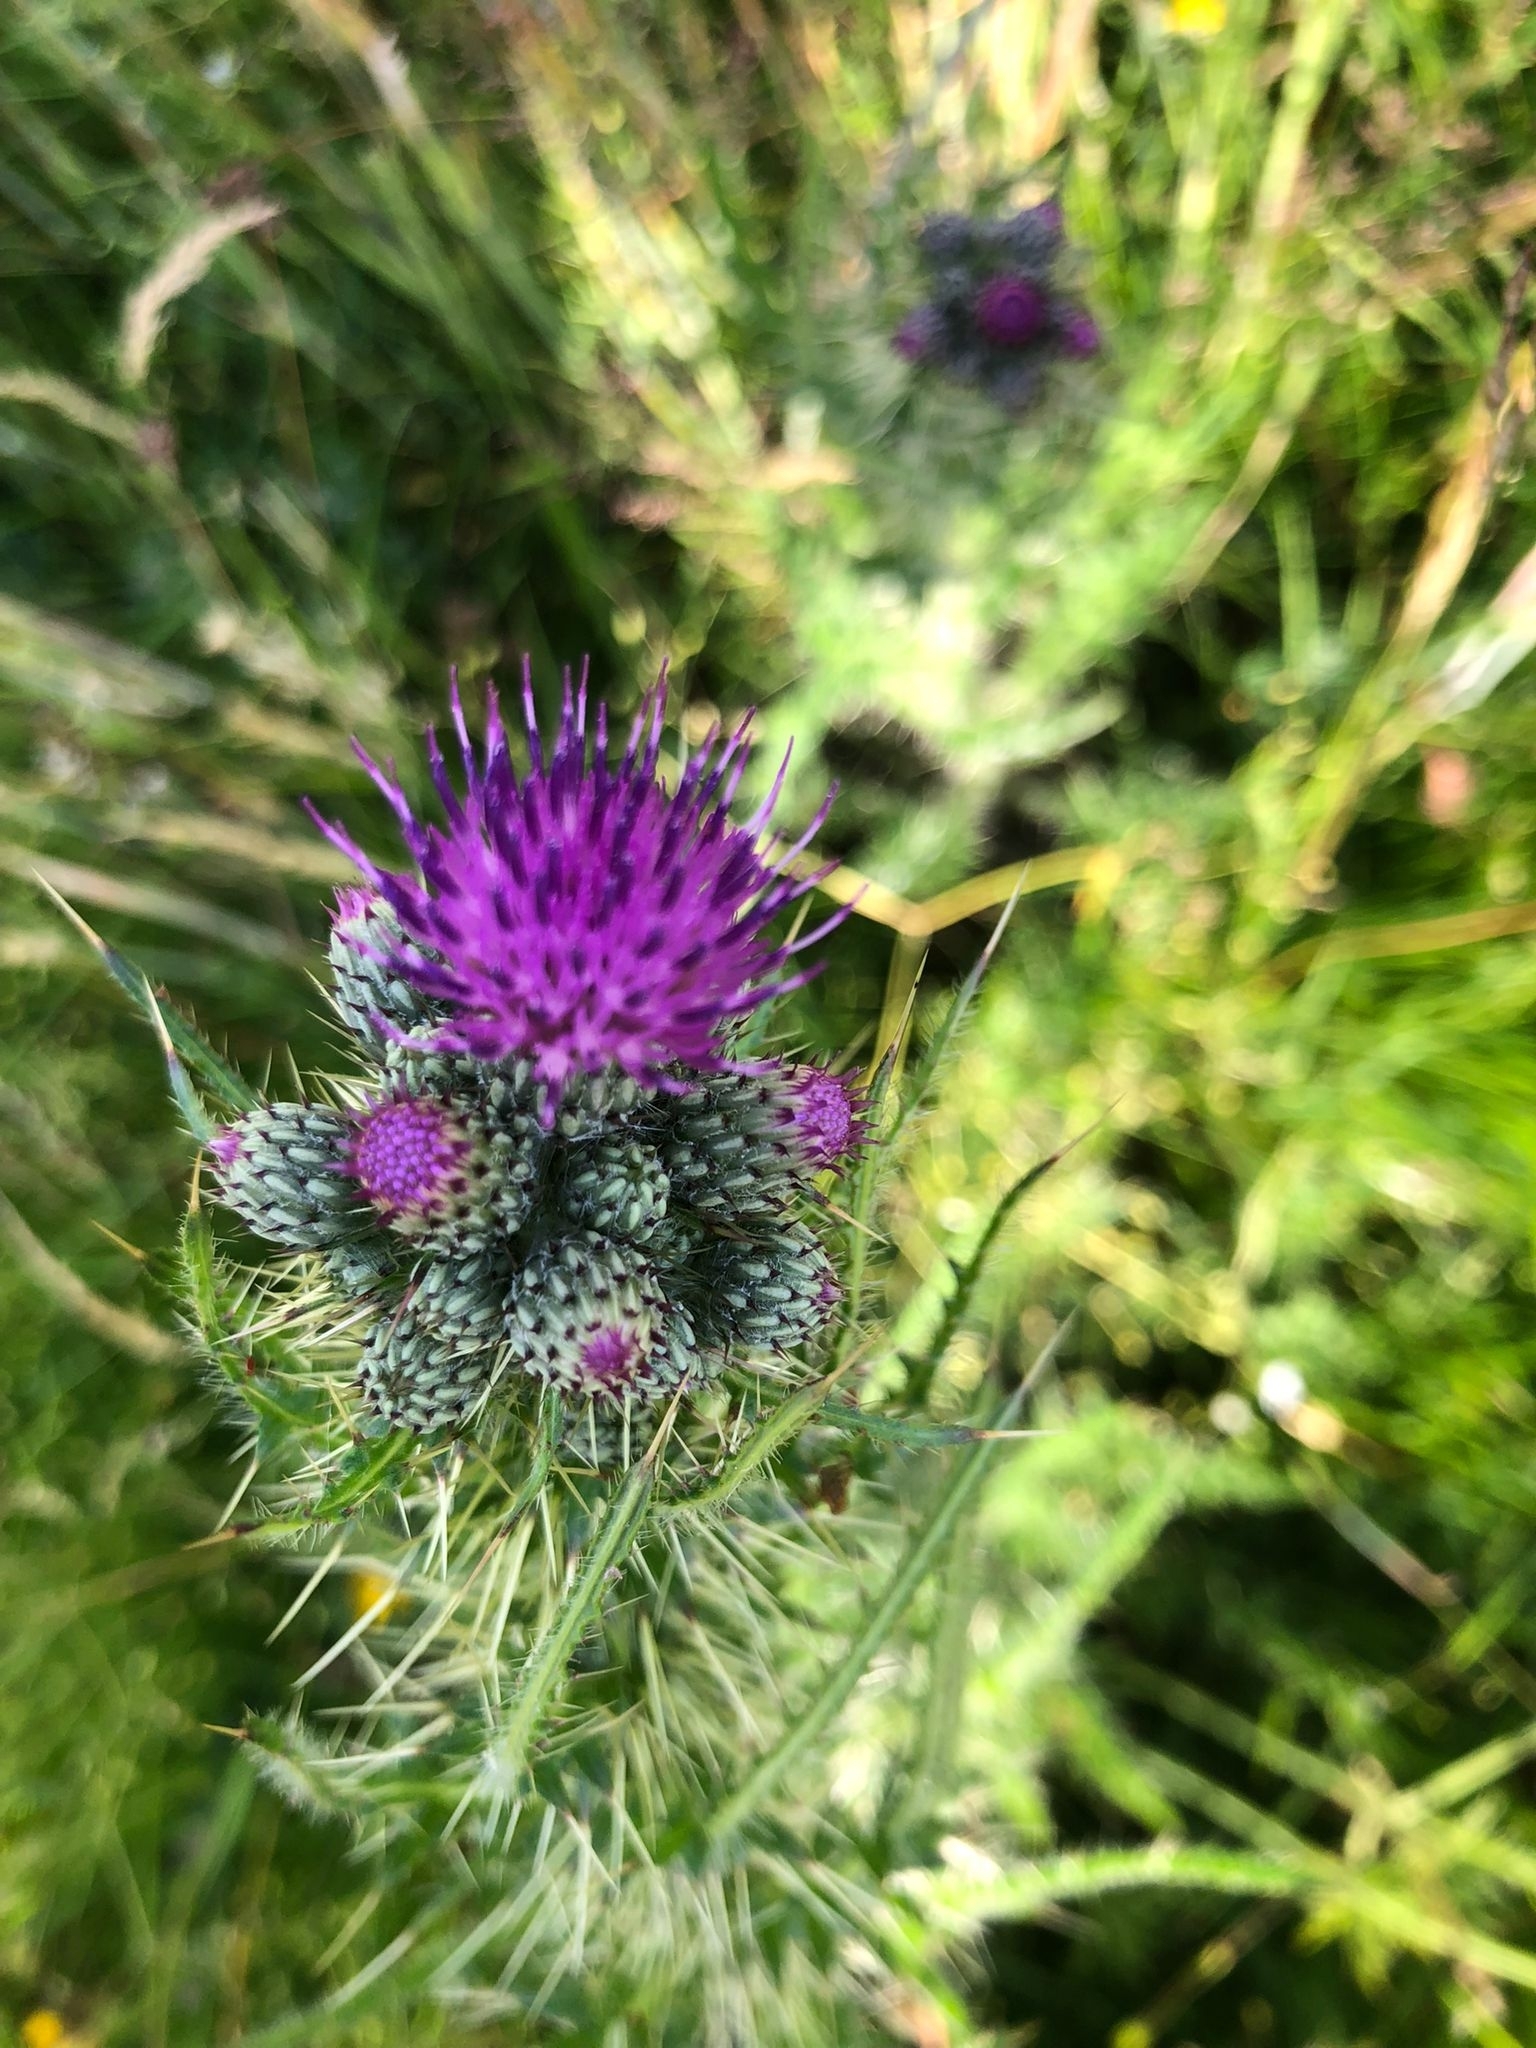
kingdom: Plantae
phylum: Tracheophyta
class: Magnoliopsida
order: Asterales
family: Asteraceae
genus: Cirsium
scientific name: Cirsium palustre
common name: Marsh thistle
